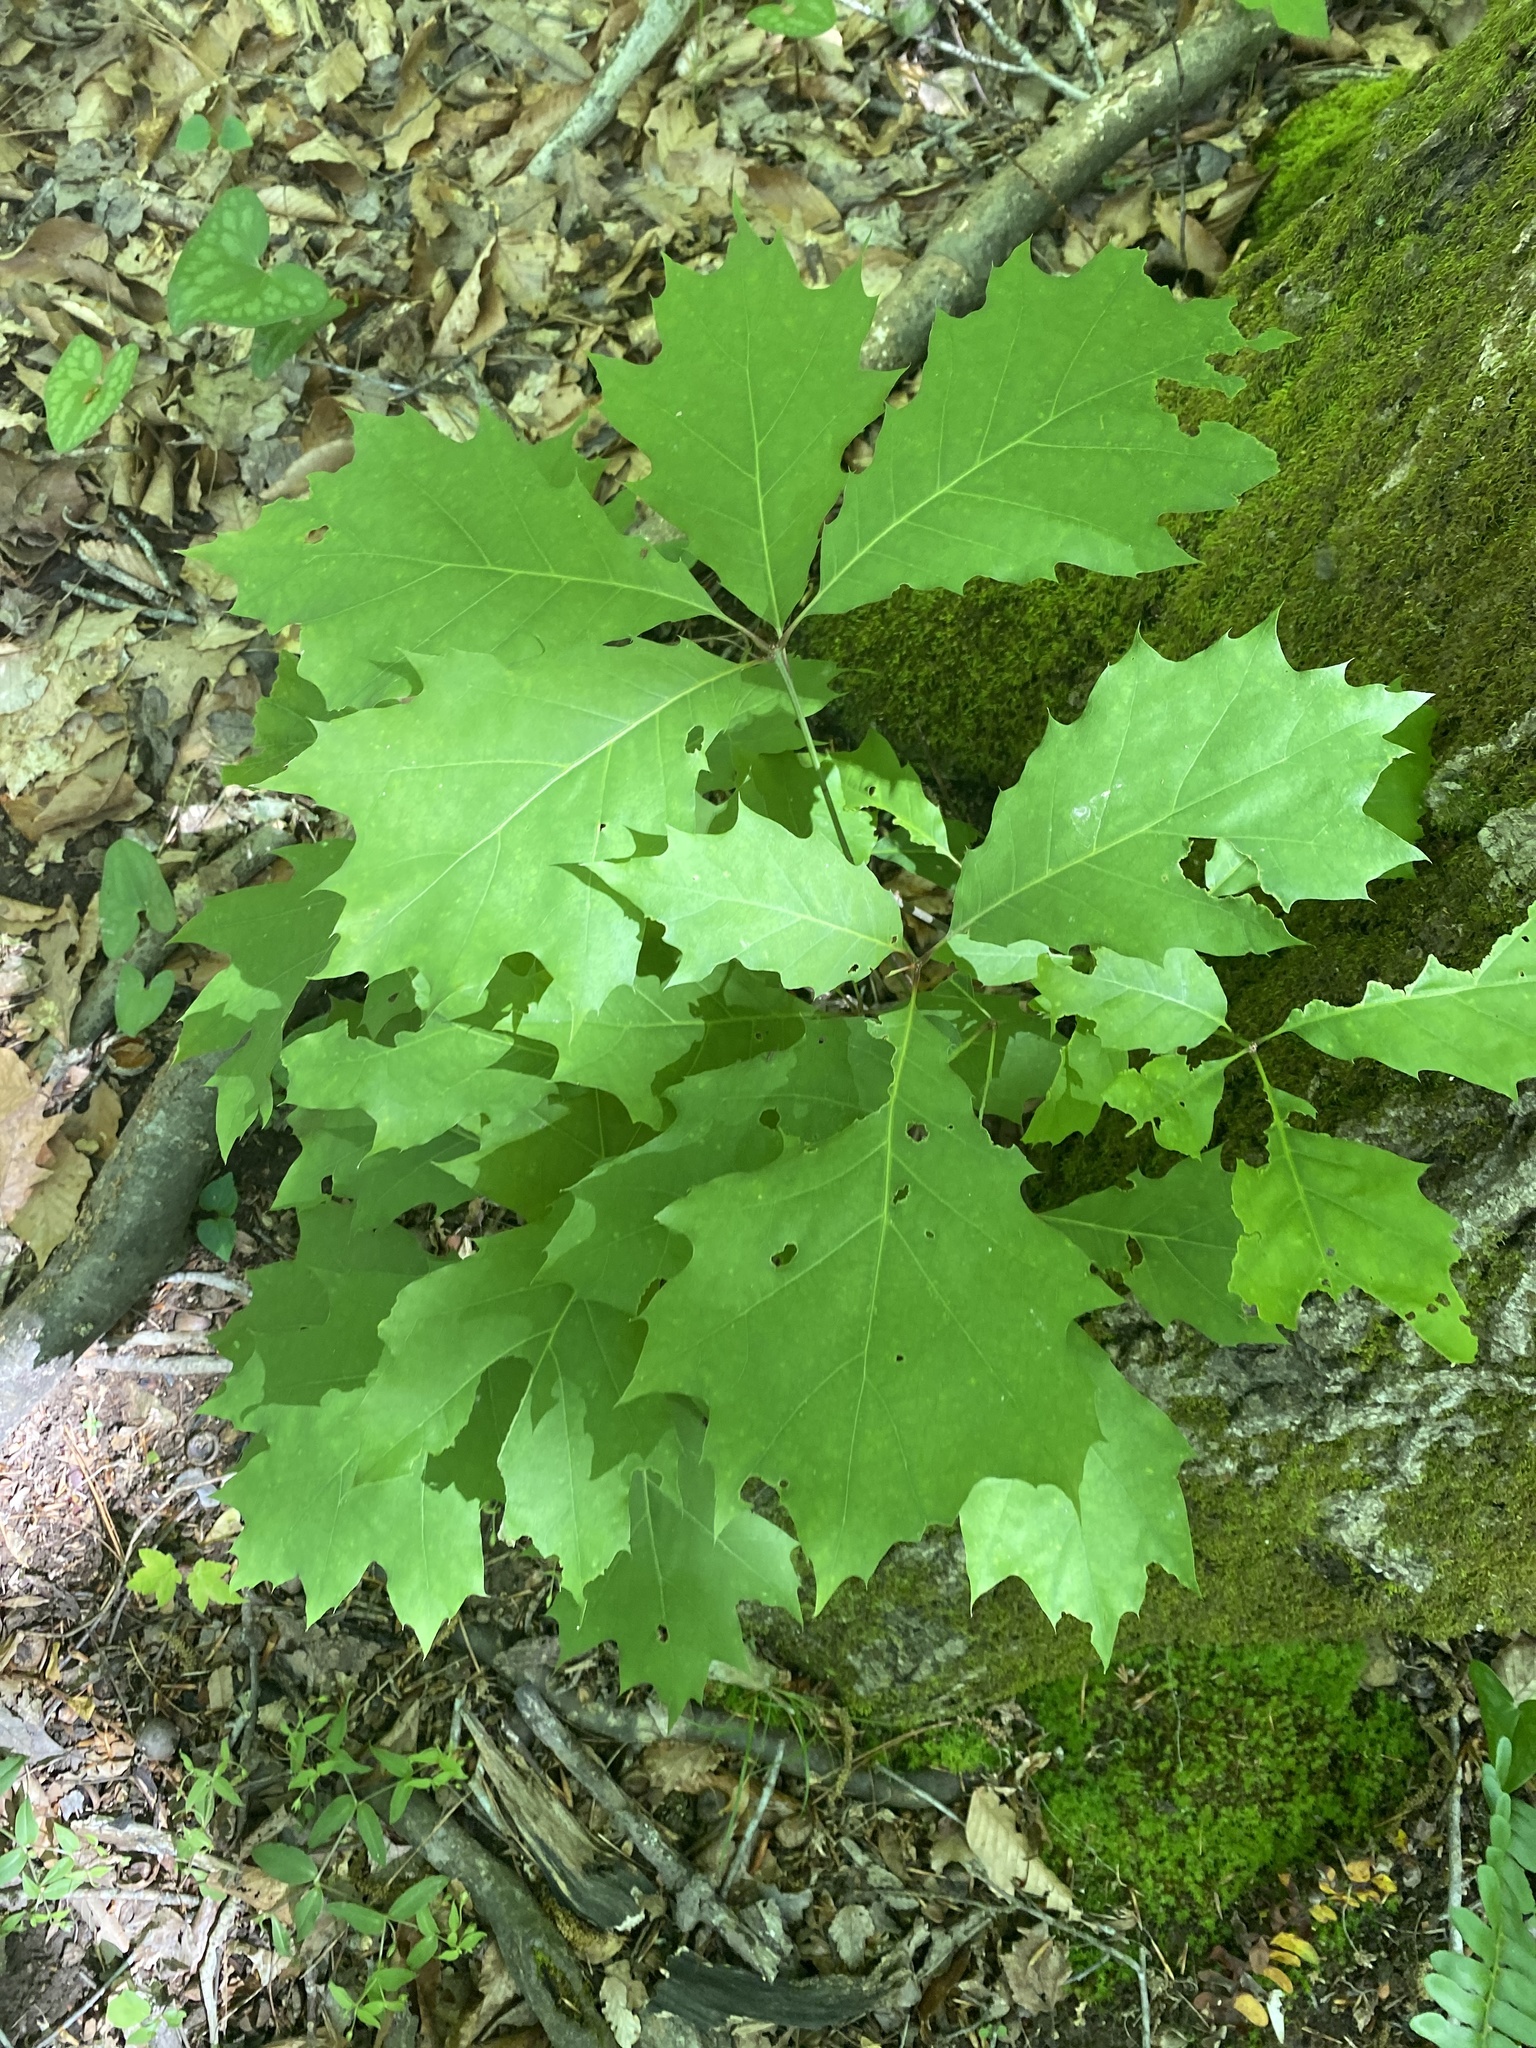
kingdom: Plantae
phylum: Tracheophyta
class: Magnoliopsida
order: Fagales
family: Fagaceae
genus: Quercus
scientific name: Quercus rubra
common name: Red oak
